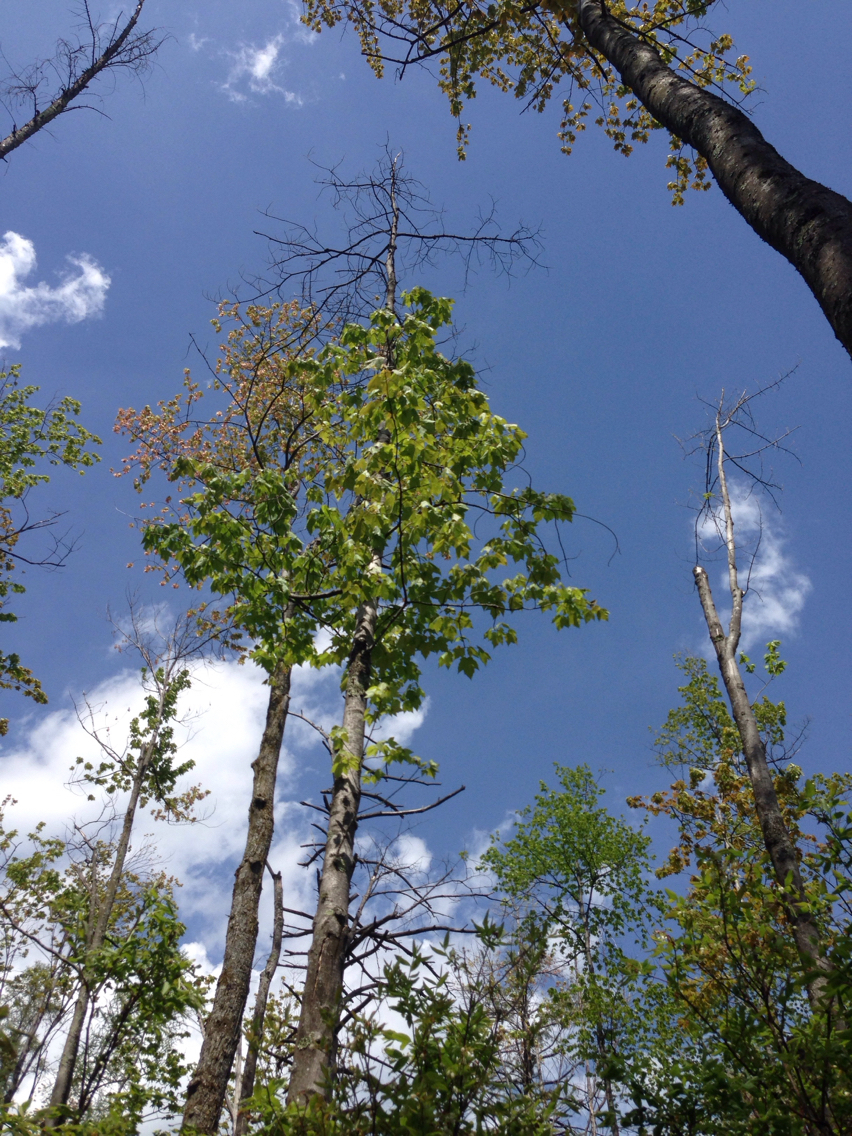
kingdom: Plantae
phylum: Tracheophyta
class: Magnoliopsida
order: Sapindales
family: Sapindaceae
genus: Acer
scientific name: Acer rubrum
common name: Red maple
